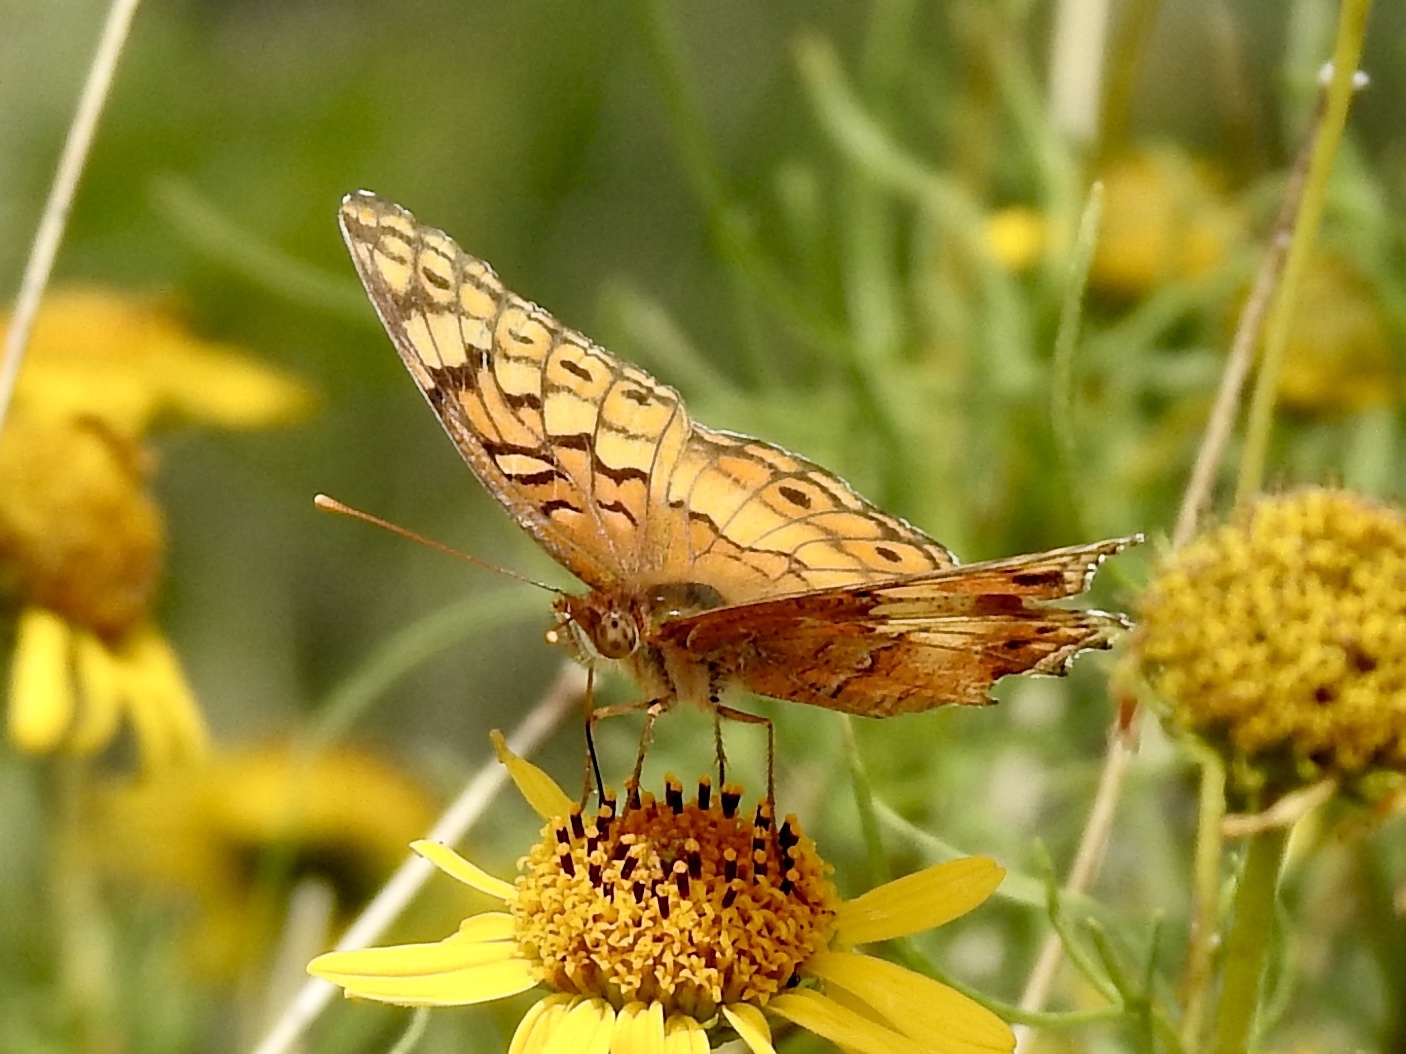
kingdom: Animalia
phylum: Arthropoda
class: Insecta
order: Lepidoptera
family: Nymphalidae
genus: Euptoieta
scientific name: Euptoieta claudia
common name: Variegated fritillary
